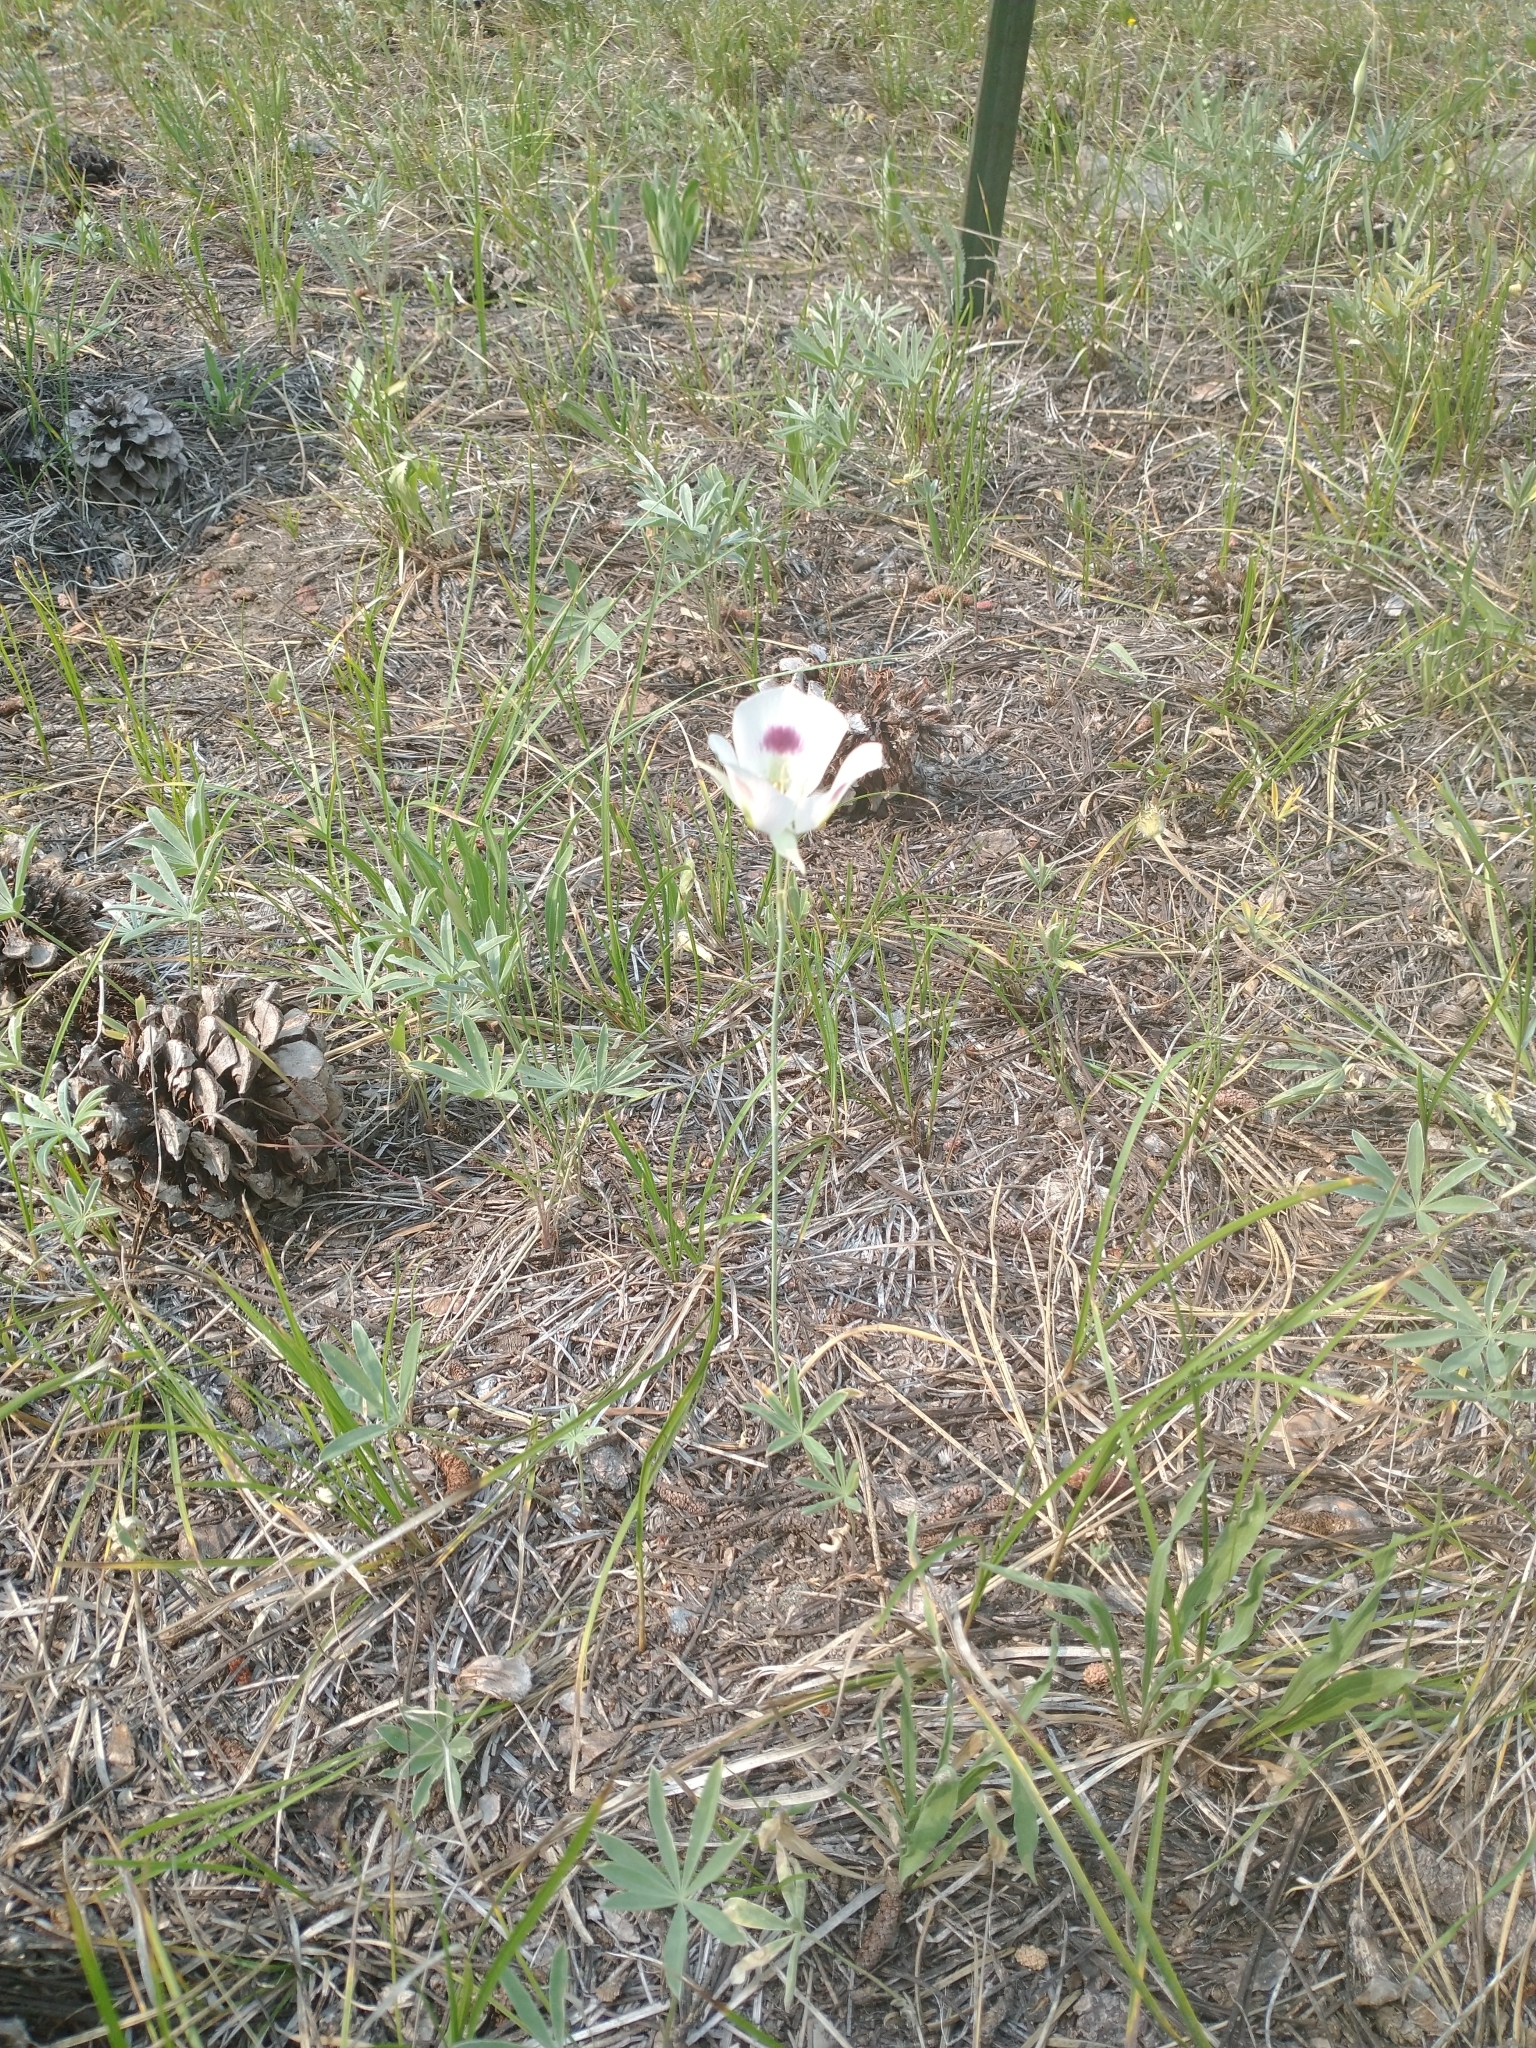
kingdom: Plantae
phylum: Tracheophyta
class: Liliopsida
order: Liliales
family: Liliaceae
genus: Calochortus
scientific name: Calochortus eurycarpus
